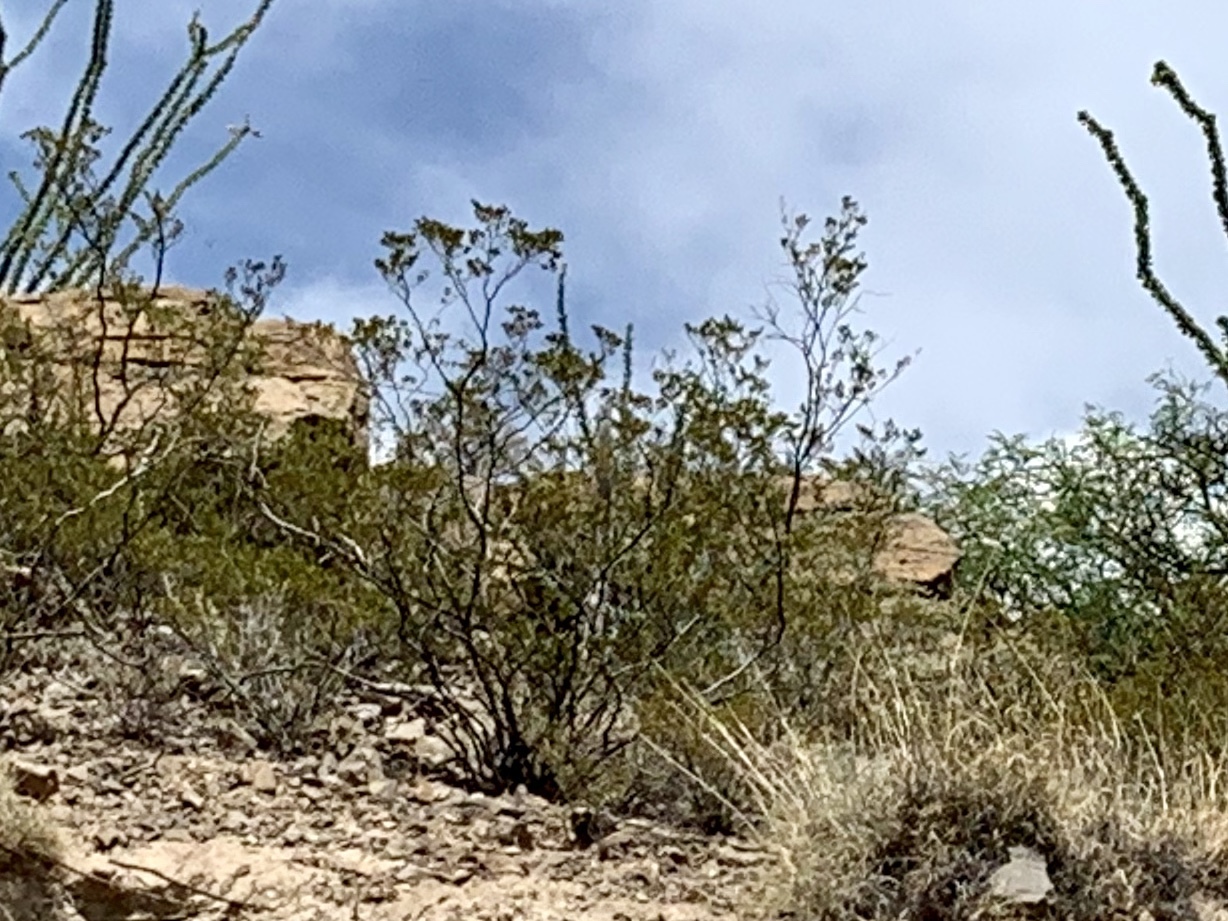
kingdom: Plantae
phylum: Tracheophyta
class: Magnoliopsida
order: Zygophyllales
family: Zygophyllaceae
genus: Larrea
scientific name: Larrea tridentata
